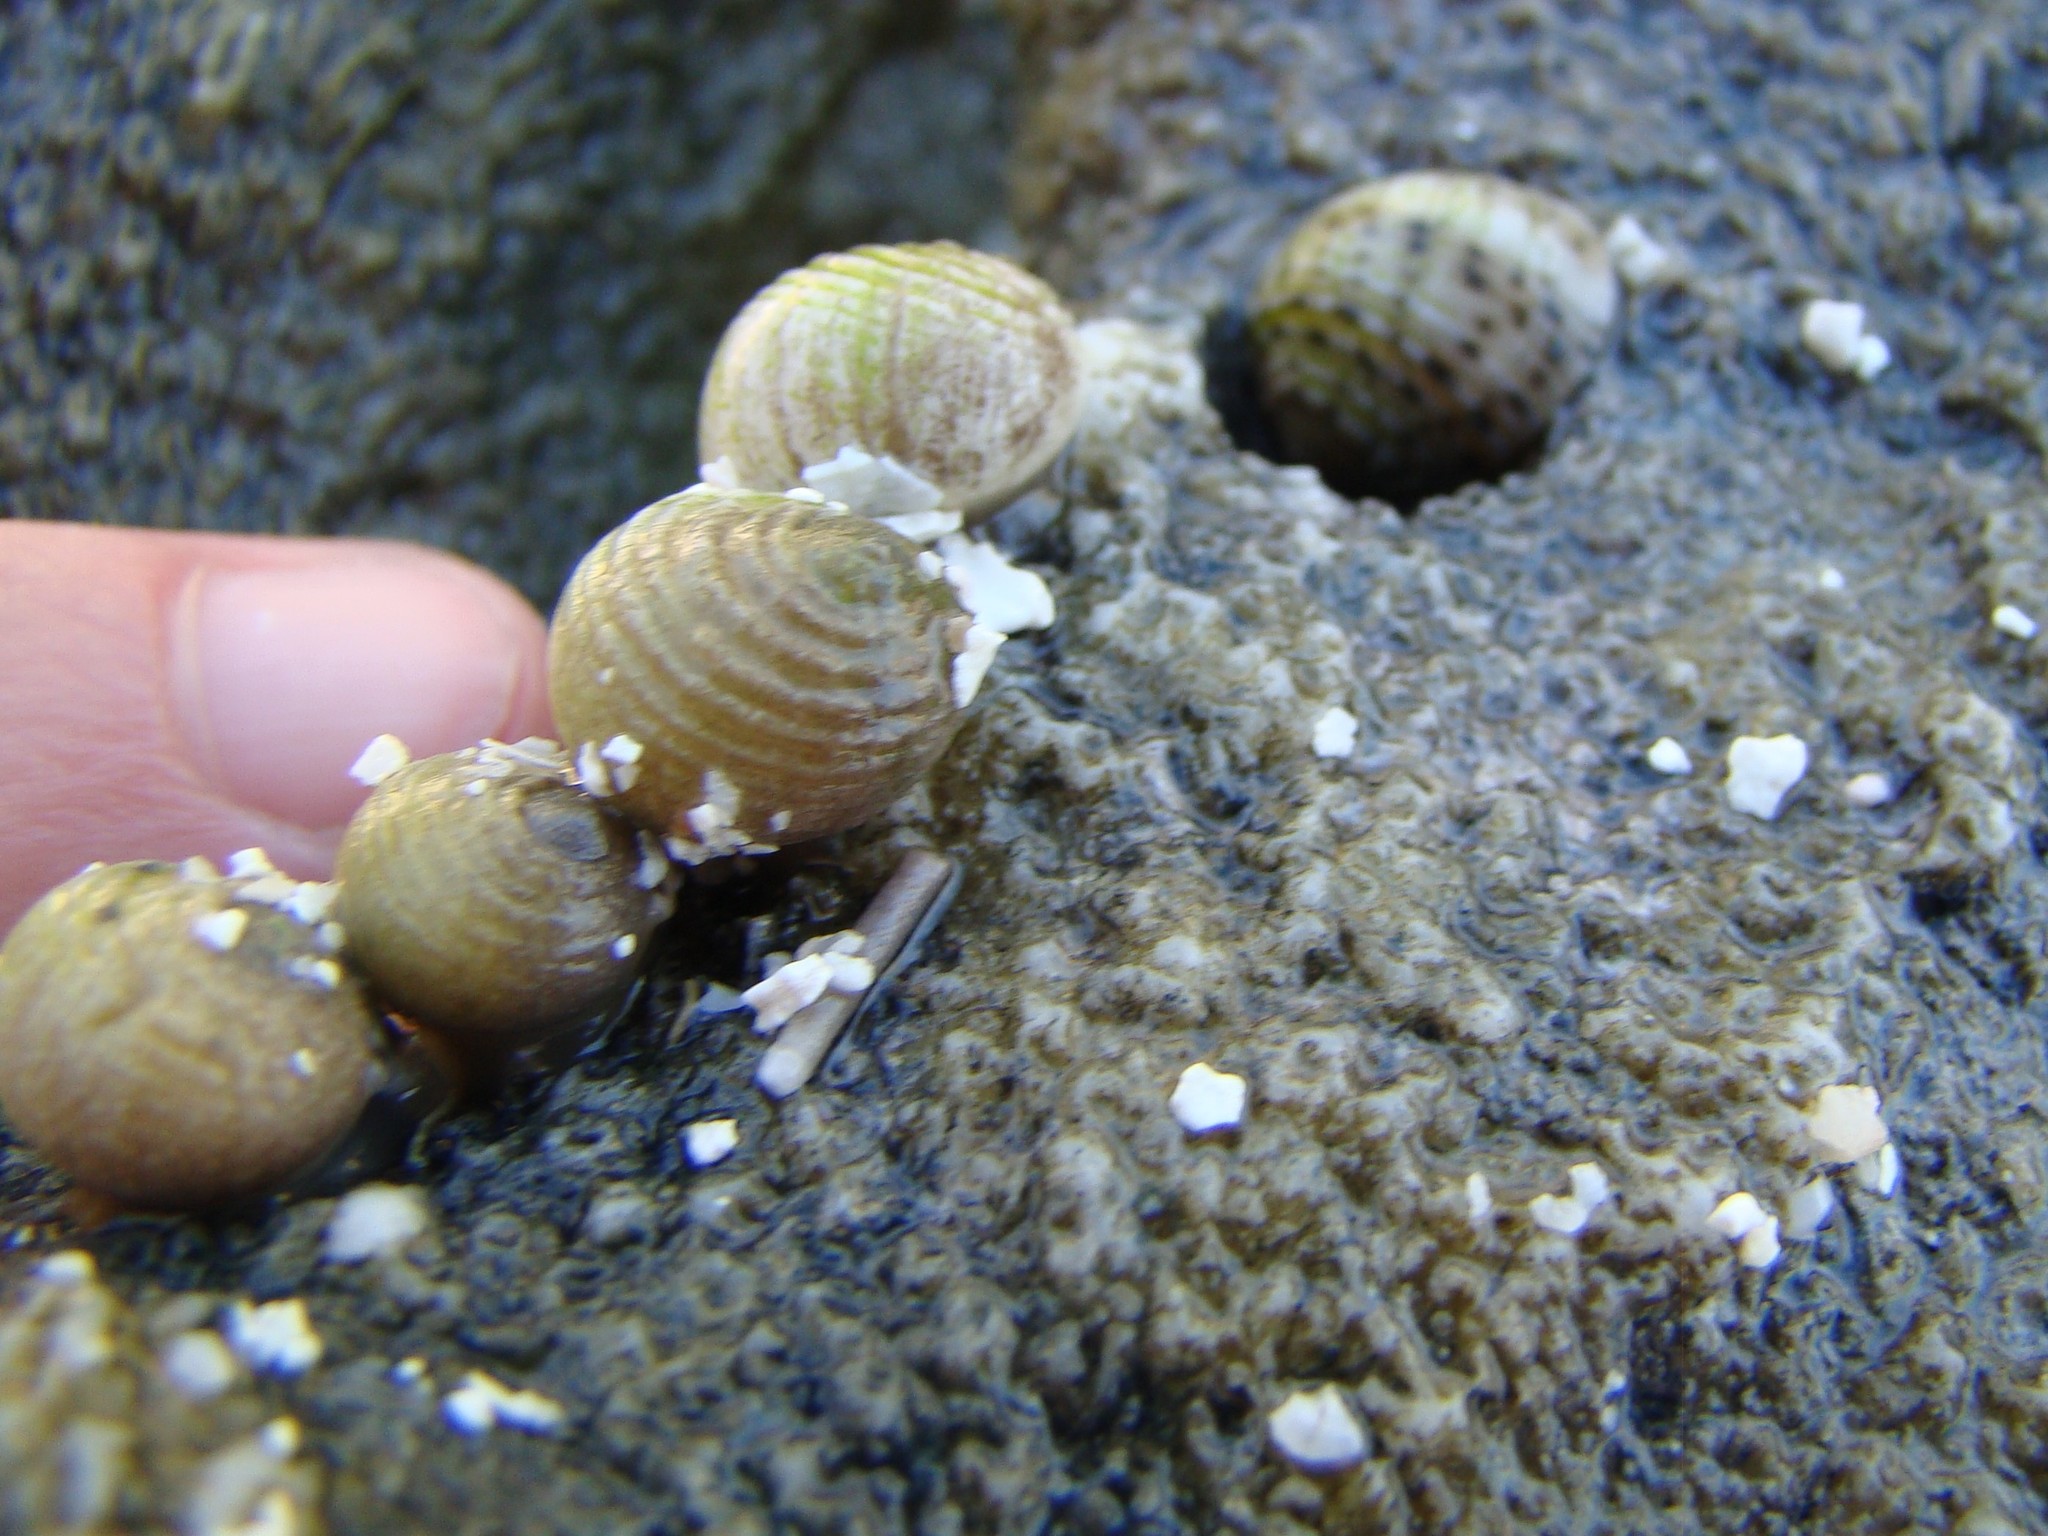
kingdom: Animalia
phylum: Mollusca
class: Gastropoda
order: Cycloneritida
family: Neritidae
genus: Nerita
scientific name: Nerita plicata
